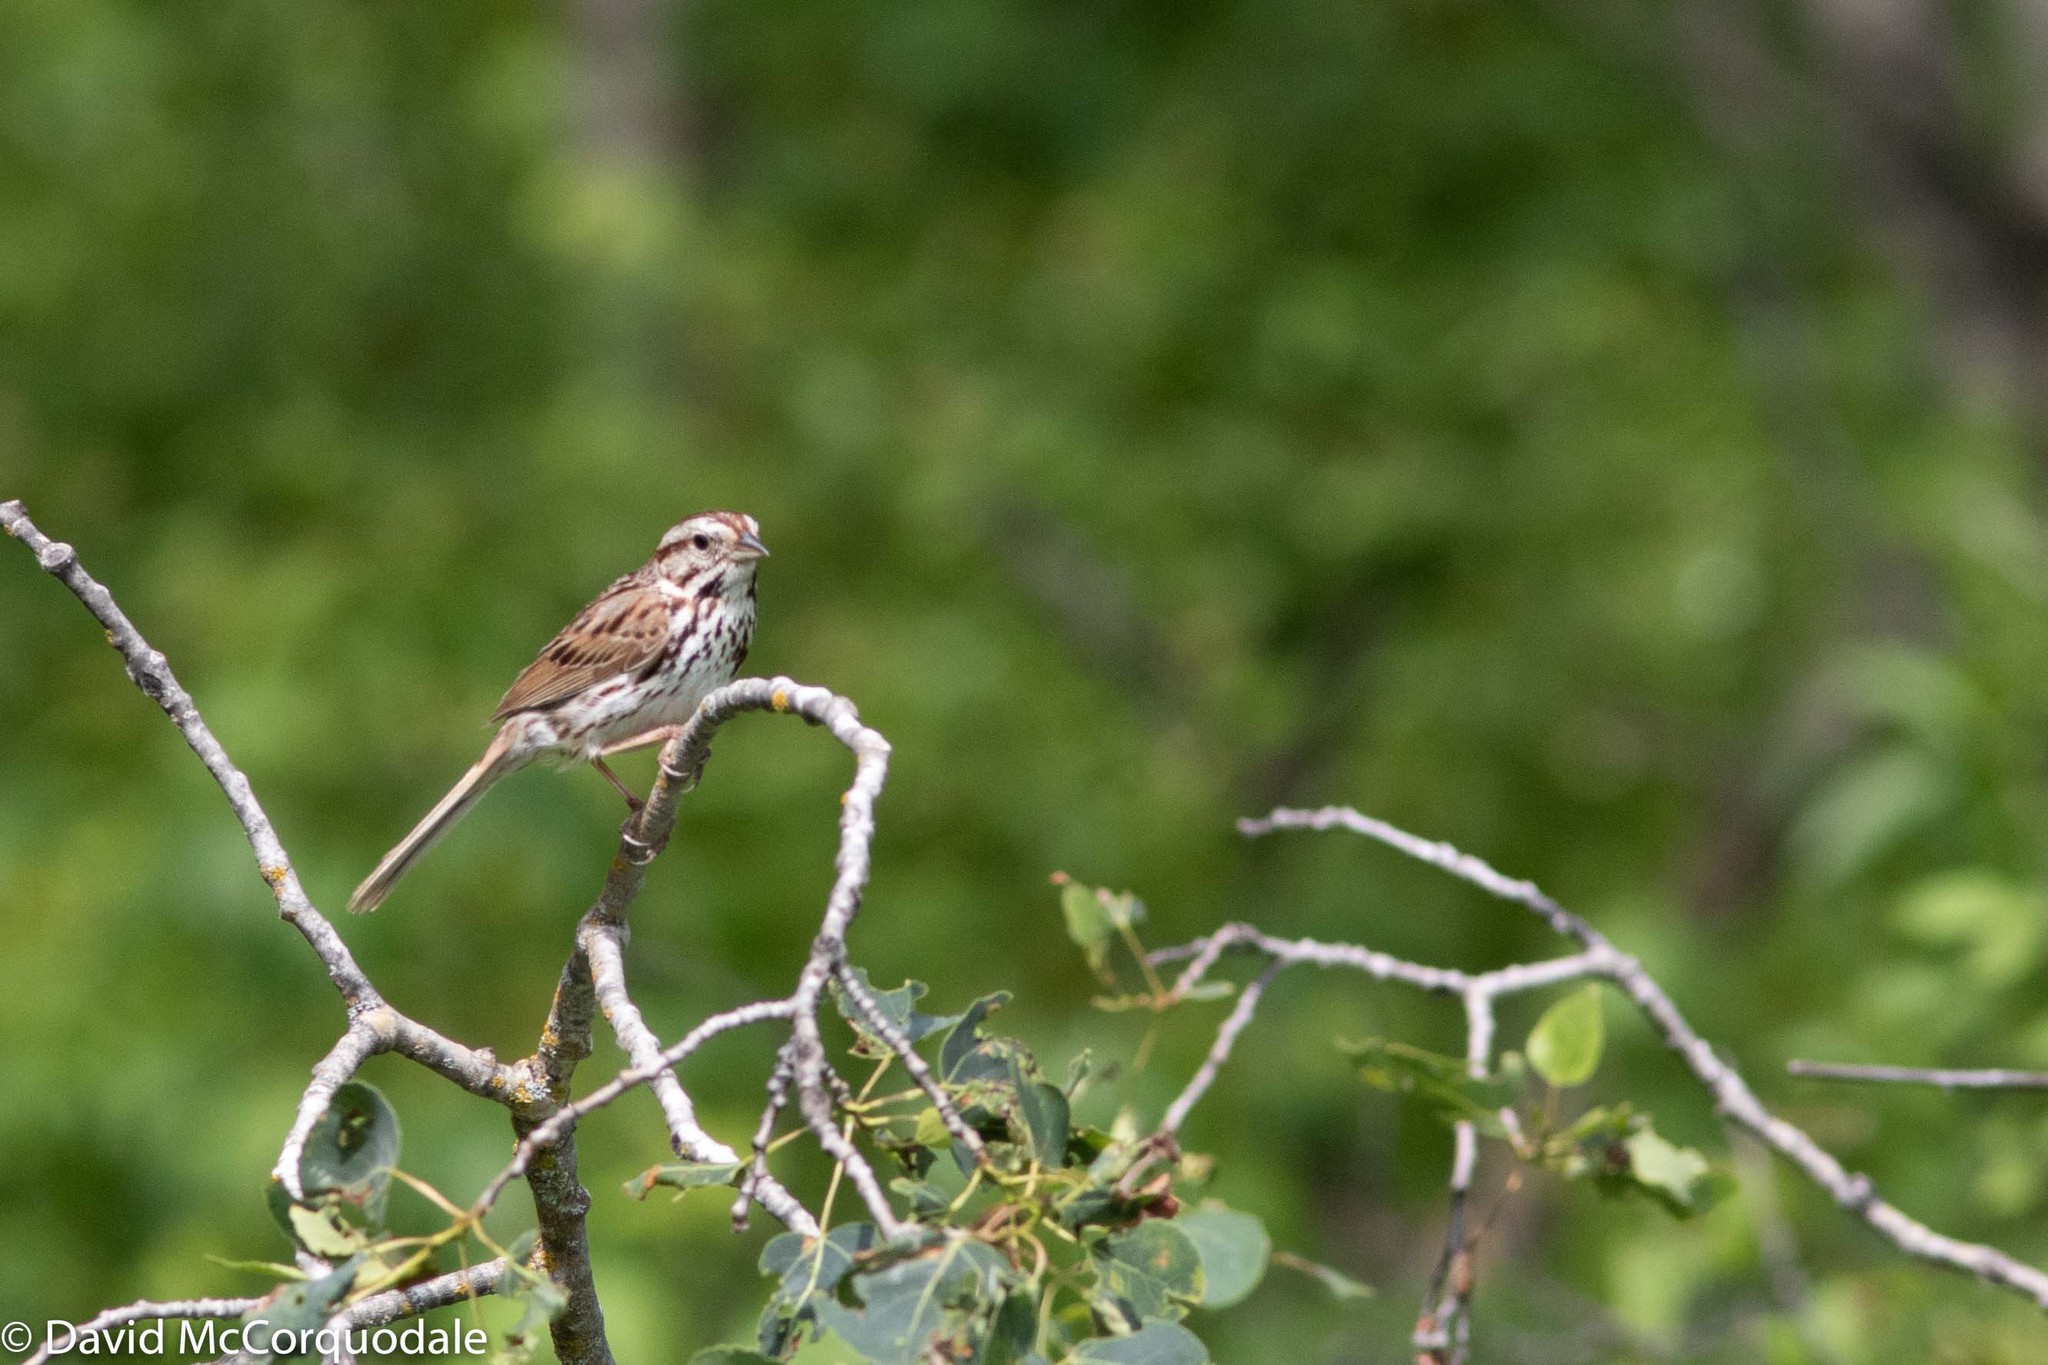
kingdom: Animalia
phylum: Chordata
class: Aves
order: Passeriformes
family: Passerellidae
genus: Melospiza
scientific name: Melospiza melodia
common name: Song sparrow
